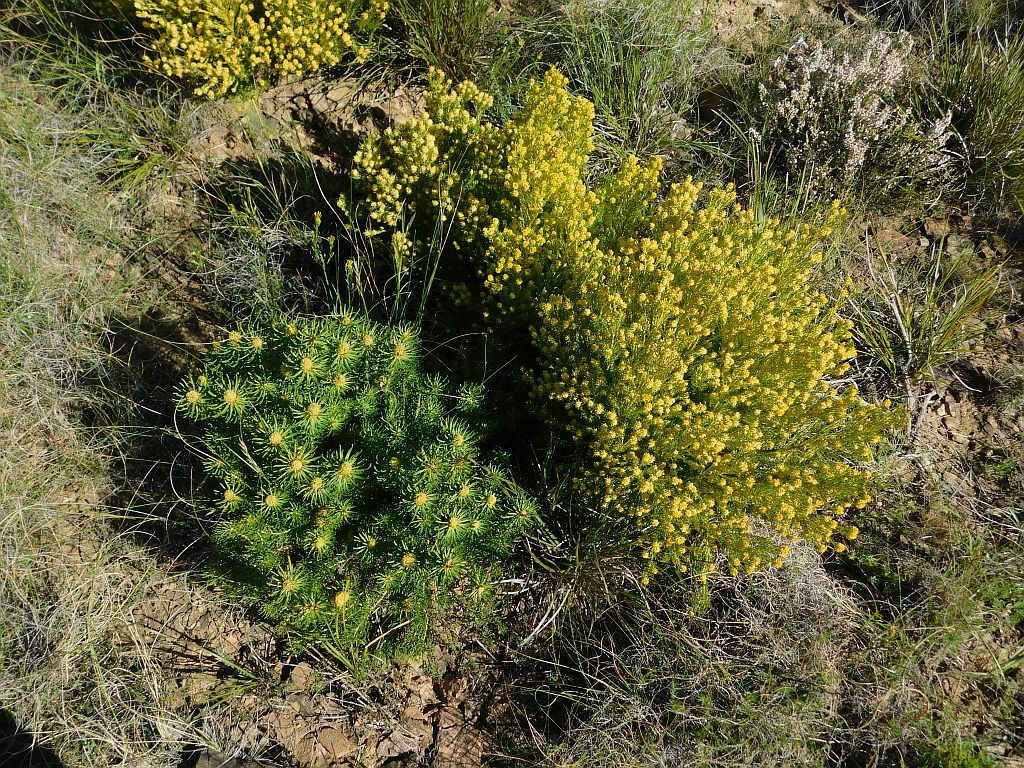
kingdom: Plantae
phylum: Tracheophyta
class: Magnoliopsida
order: Proteales
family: Proteaceae
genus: Leucadendron
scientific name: Leucadendron teretifolium
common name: Needle-leaf conebush
